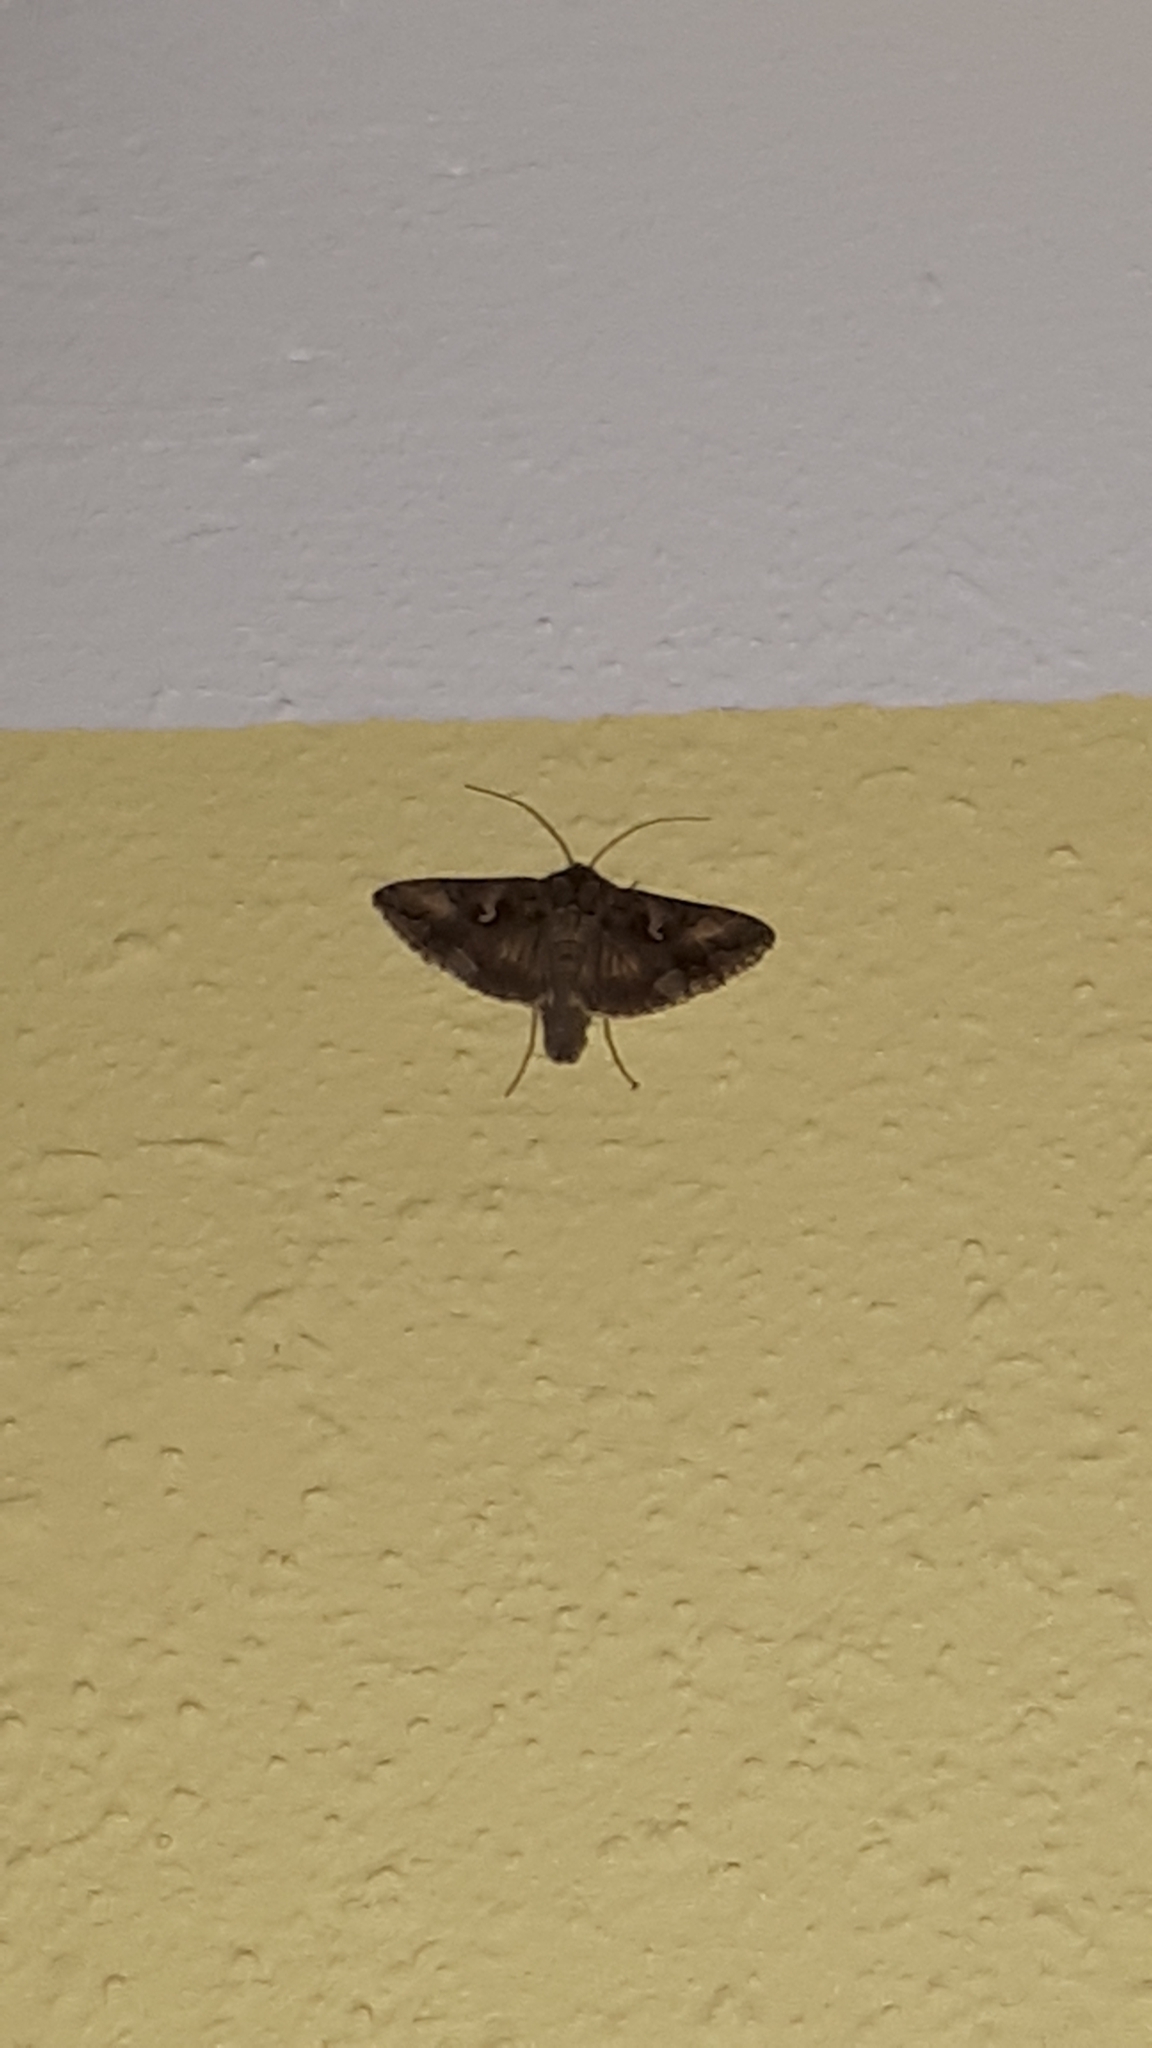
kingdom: Animalia
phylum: Arthropoda
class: Insecta
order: Lepidoptera
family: Noctuidae
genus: Autographa
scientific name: Autographa gamma
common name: Silver y
